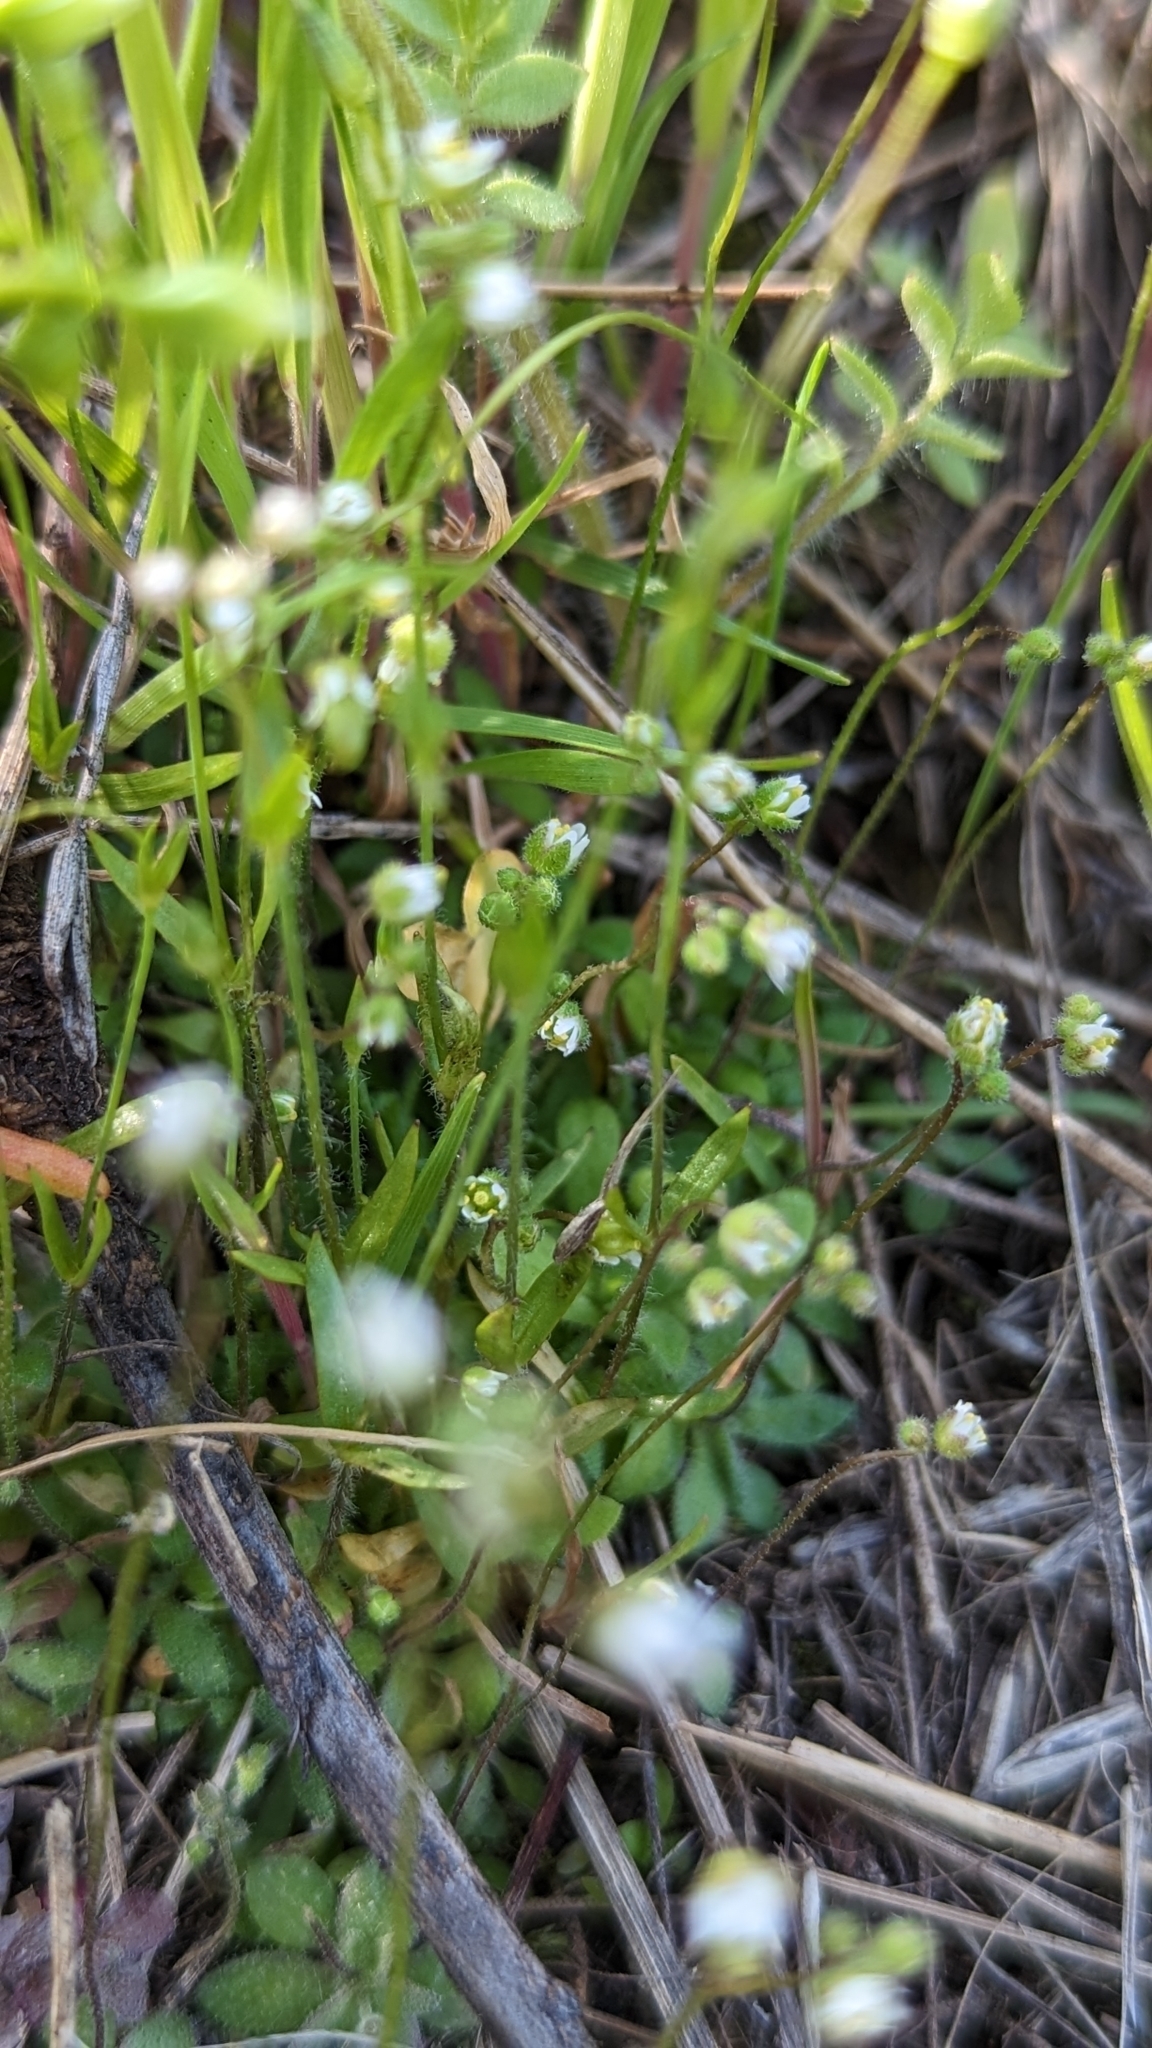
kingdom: Plantae
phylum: Tracheophyta
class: Magnoliopsida
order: Brassicales
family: Brassicaceae
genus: Draba
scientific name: Draba verna
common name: Spring draba
